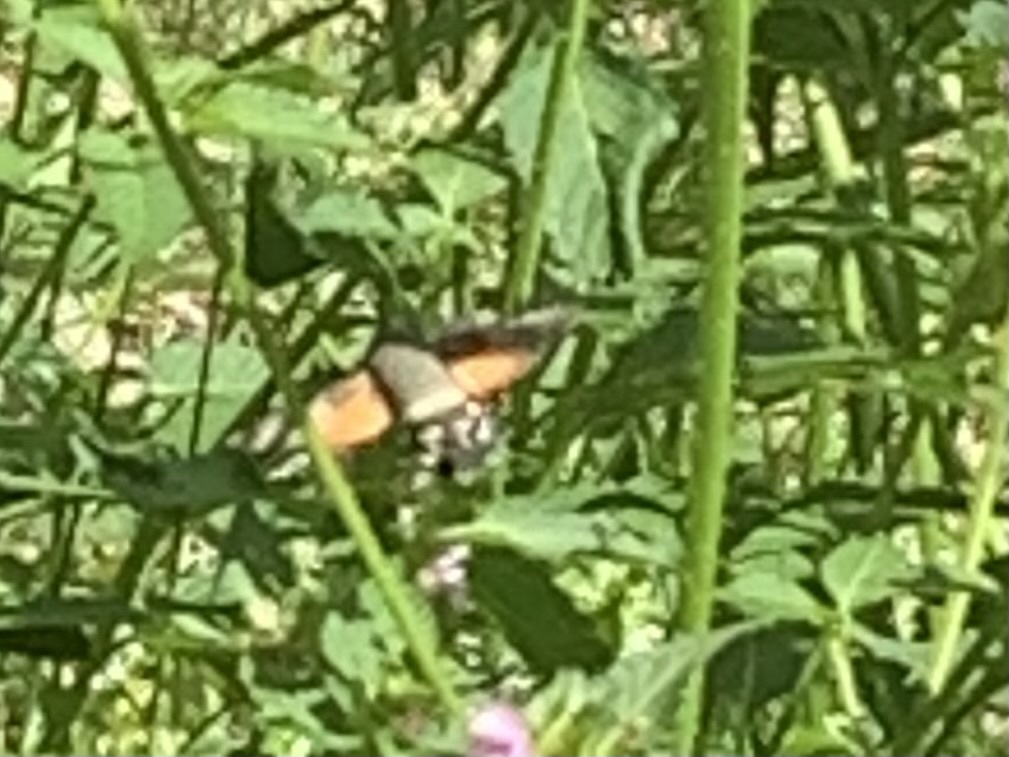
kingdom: Animalia
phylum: Arthropoda
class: Insecta
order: Lepidoptera
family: Sphingidae
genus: Macroglossum
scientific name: Macroglossum stellatarum
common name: Humming-bird hawk-moth
